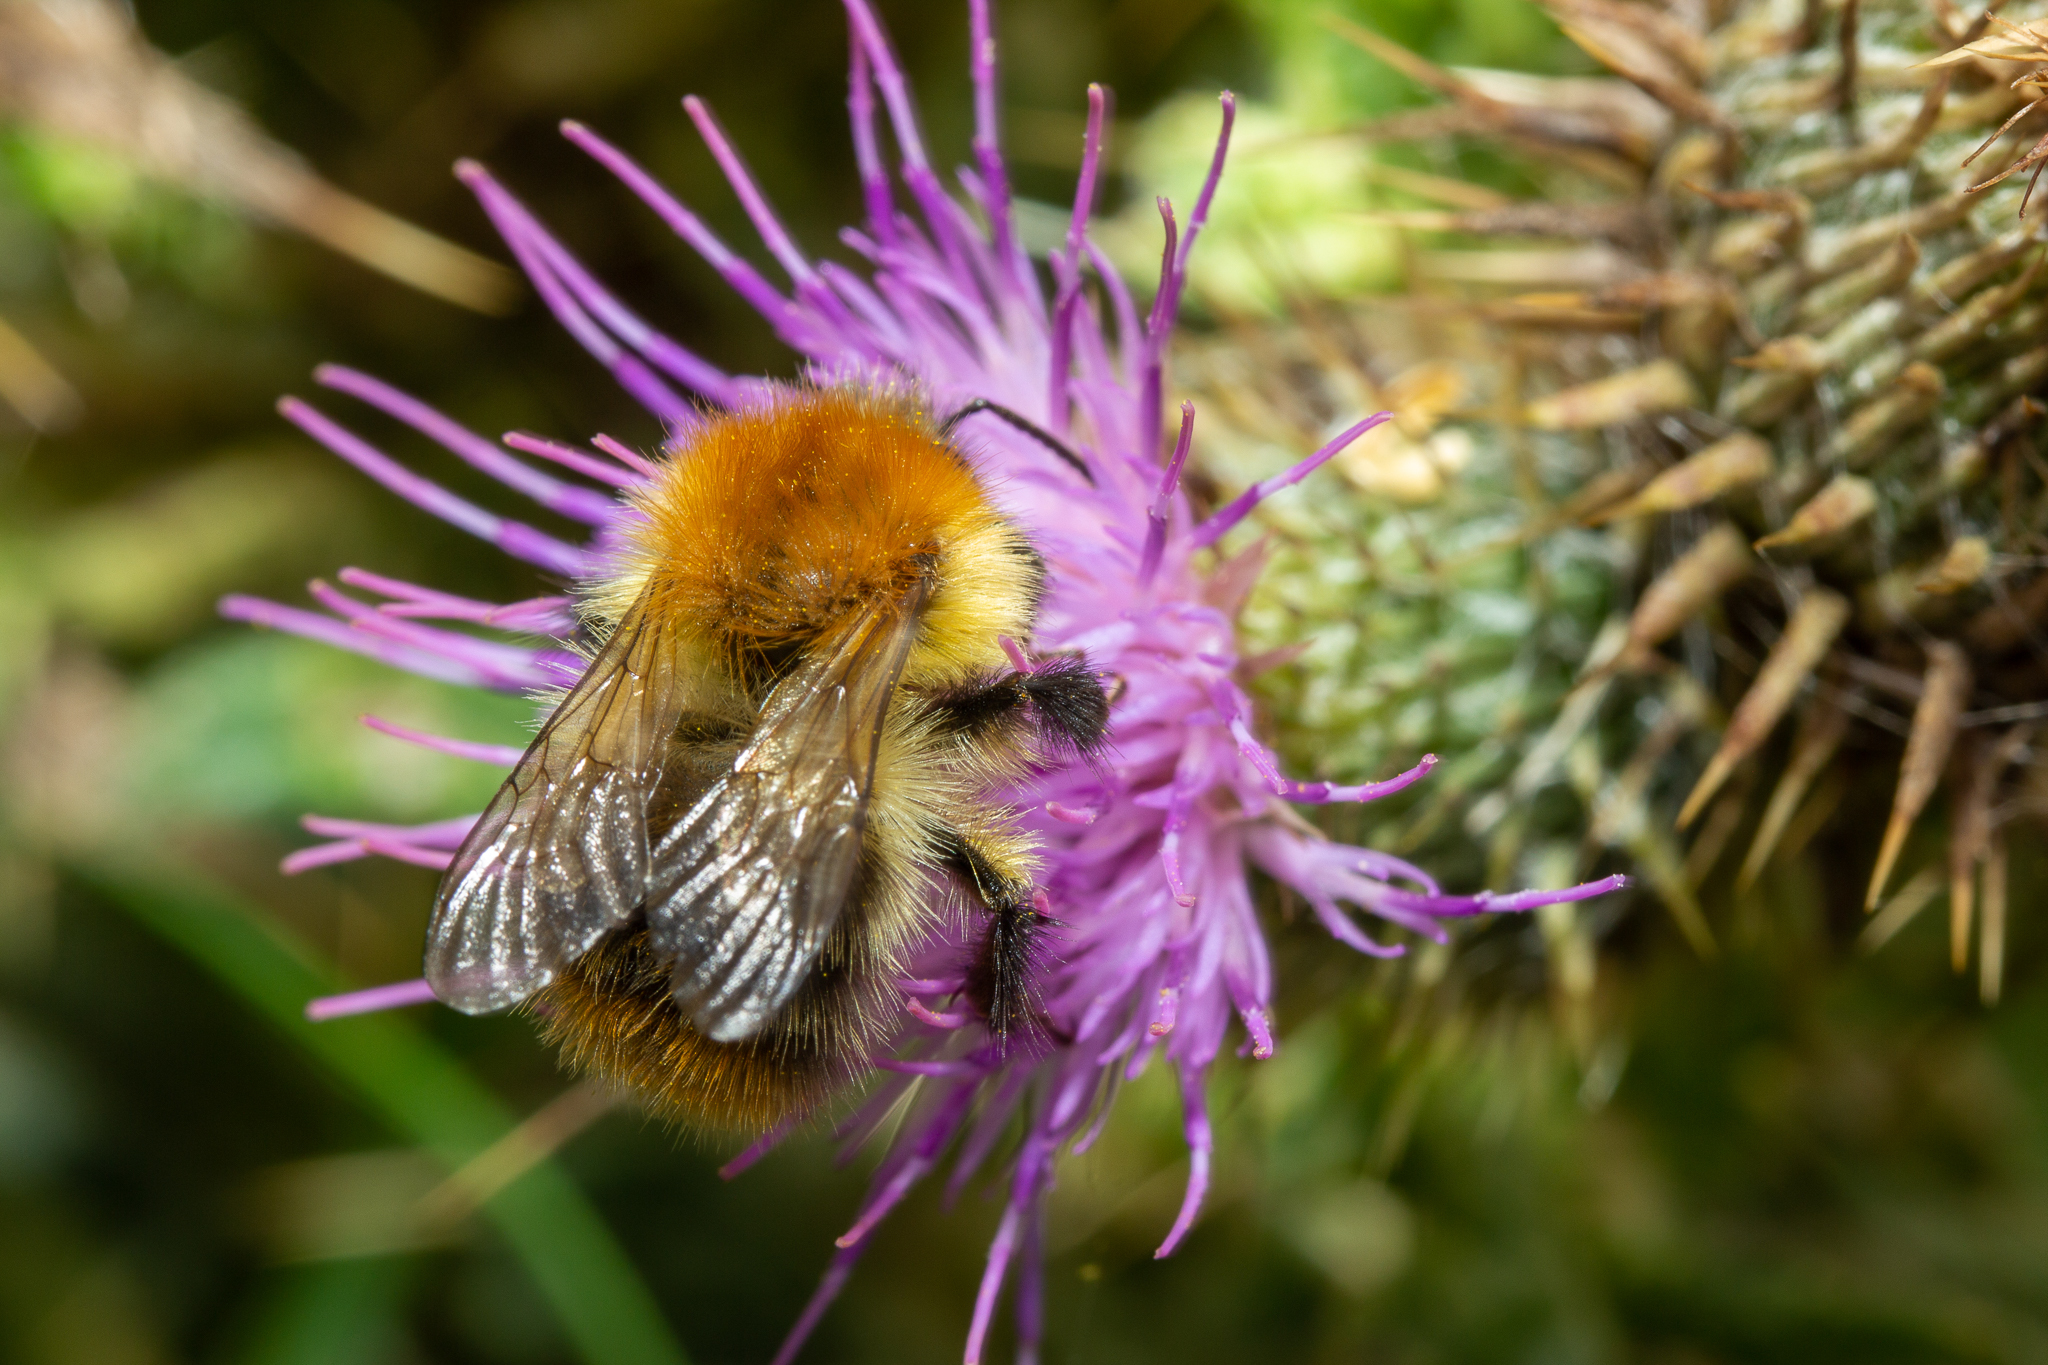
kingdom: Animalia
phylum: Arthropoda
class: Insecta
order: Hymenoptera
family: Apidae
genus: Bombus
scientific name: Bombus pascuorum
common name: Common carder bee
